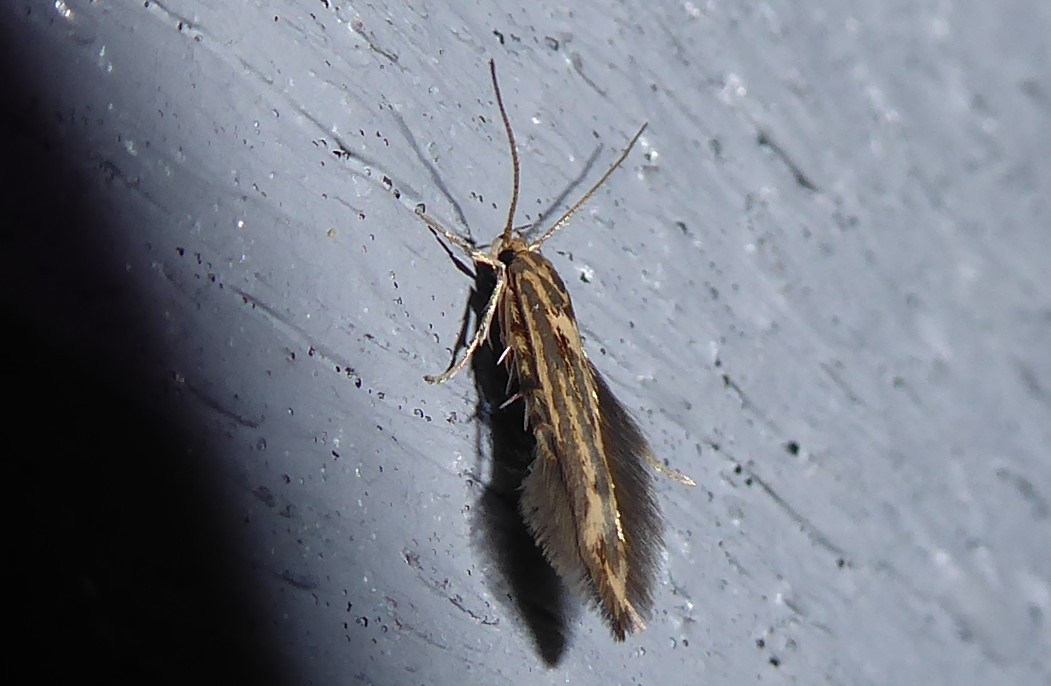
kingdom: Animalia
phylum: Arthropoda
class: Insecta
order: Lepidoptera
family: Stathmopodidae
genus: Stathmopoda
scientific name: Stathmopoda plumbiflua
